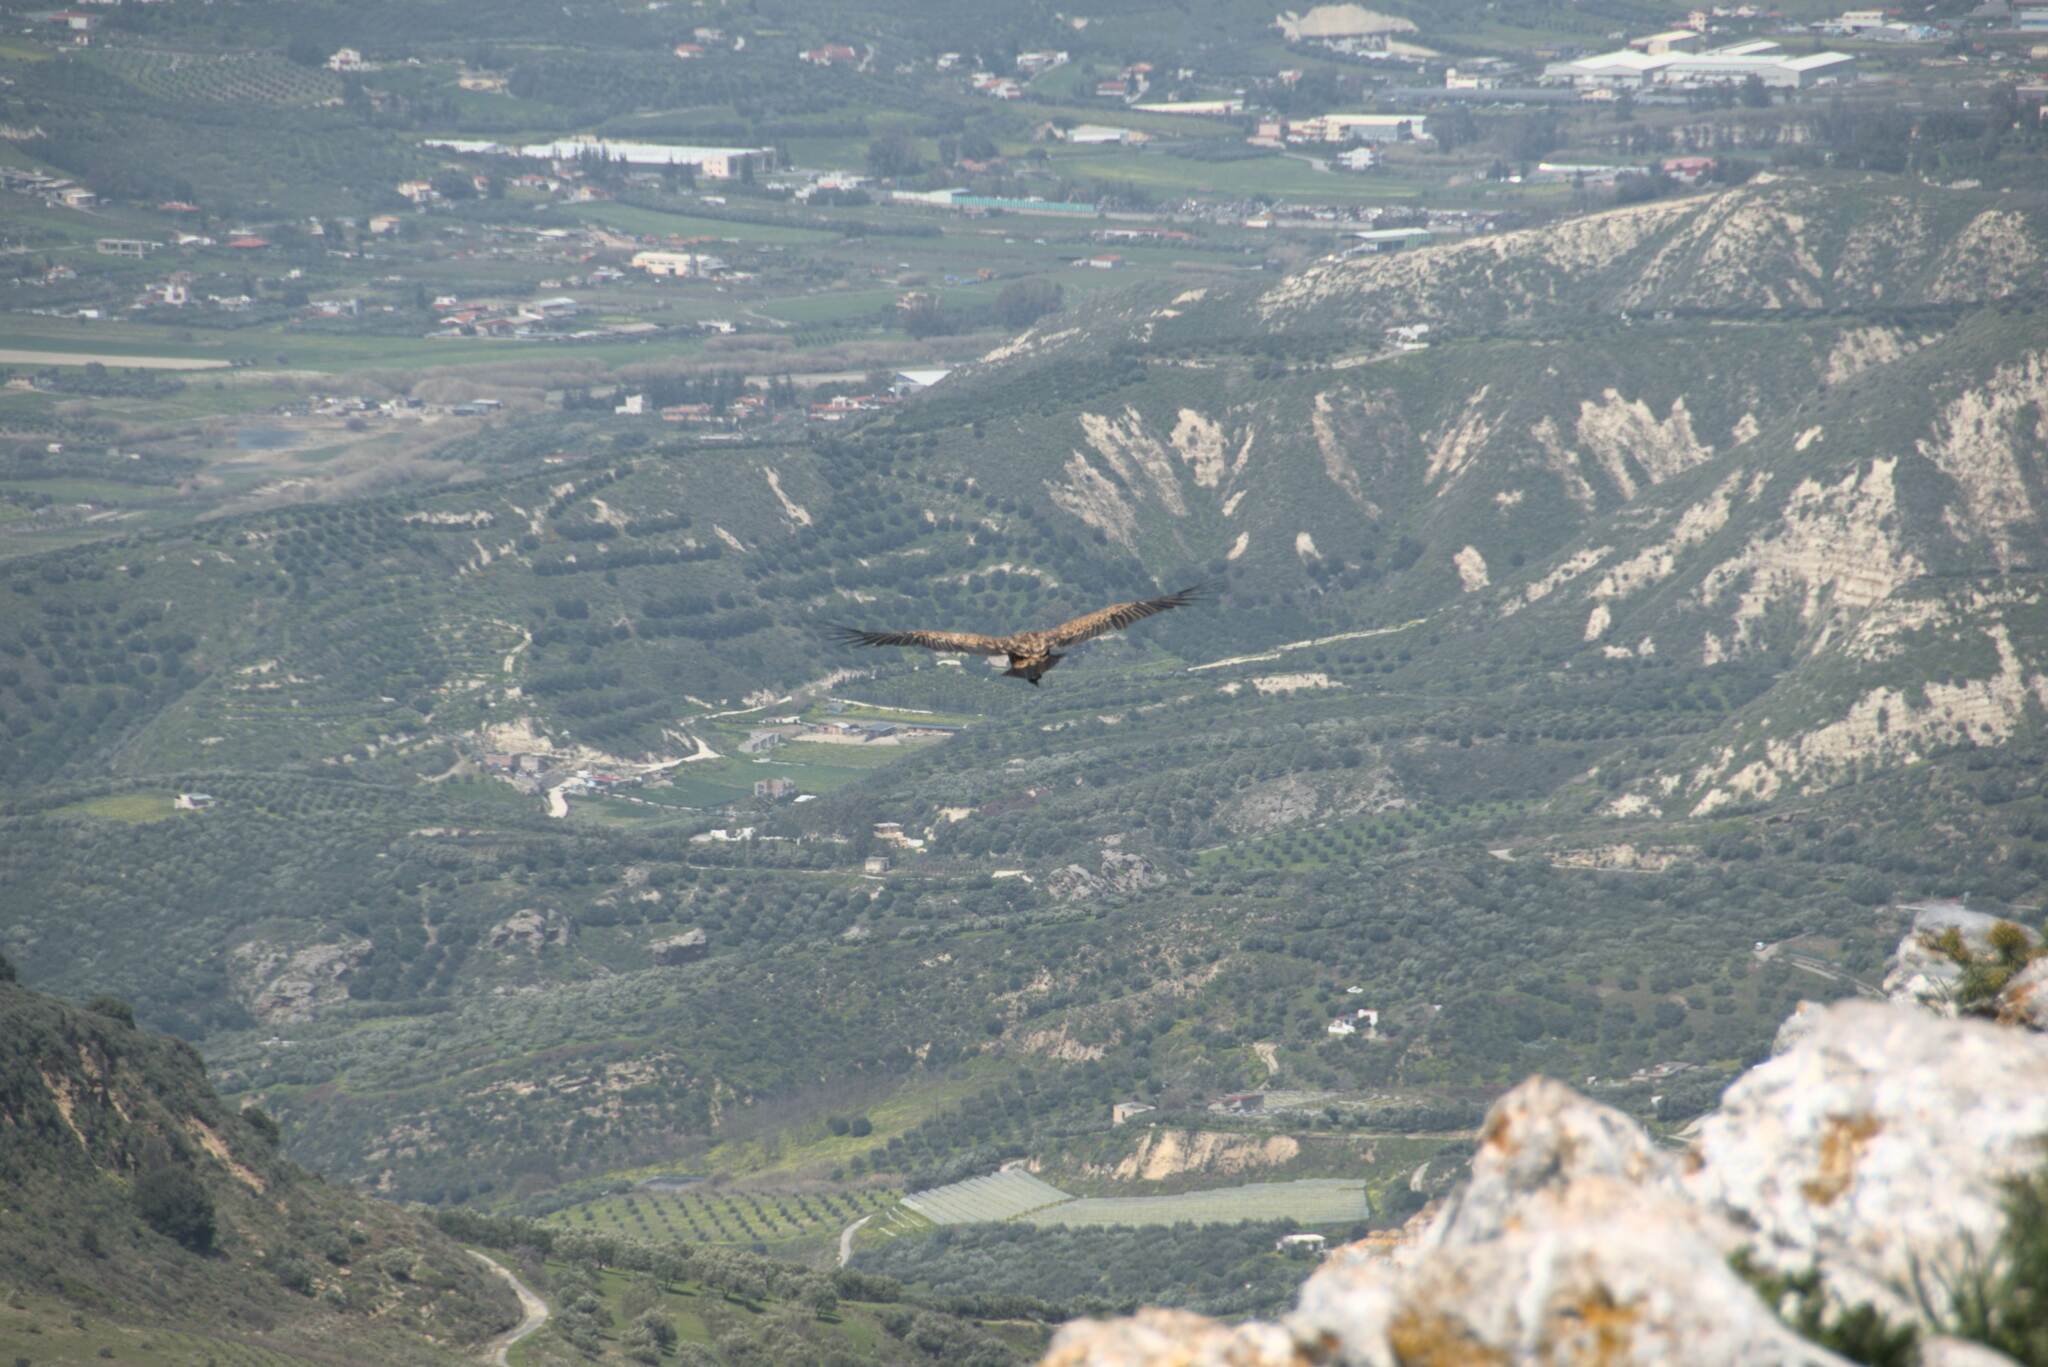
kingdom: Animalia
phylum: Chordata
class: Aves
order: Accipitriformes
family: Accipitridae
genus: Gyps
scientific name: Gyps fulvus
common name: Griffon vulture
